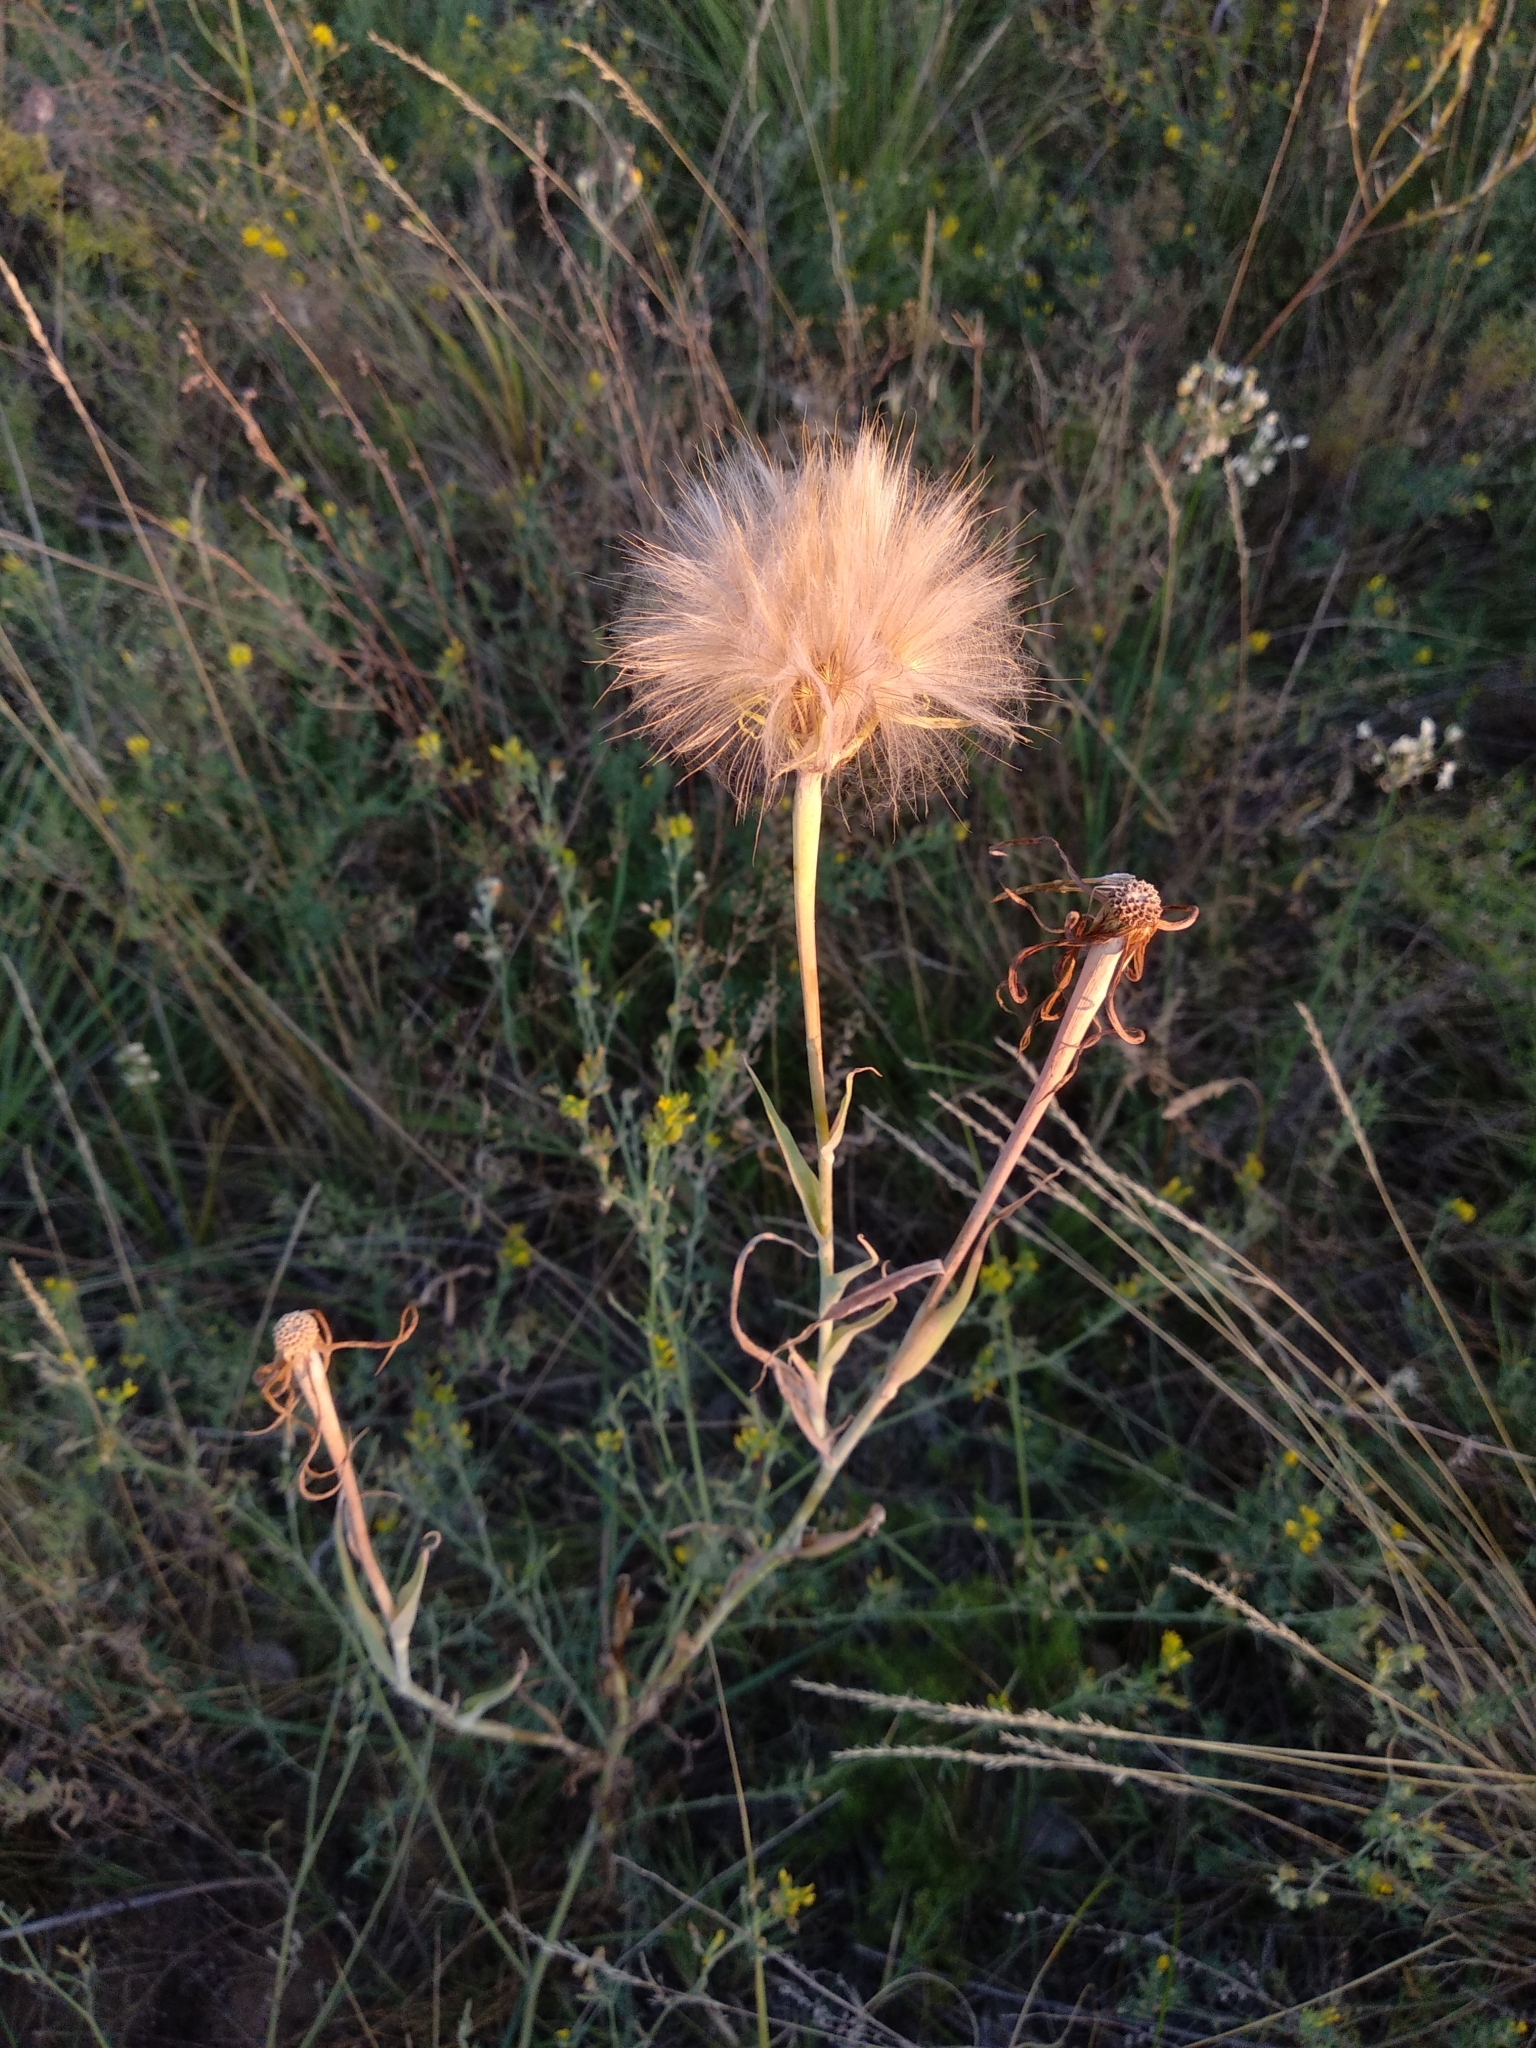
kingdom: Plantae
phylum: Tracheophyta
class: Magnoliopsida
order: Asterales
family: Asteraceae
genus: Tragopogon
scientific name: Tragopogon dubius
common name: Yellow salsify
